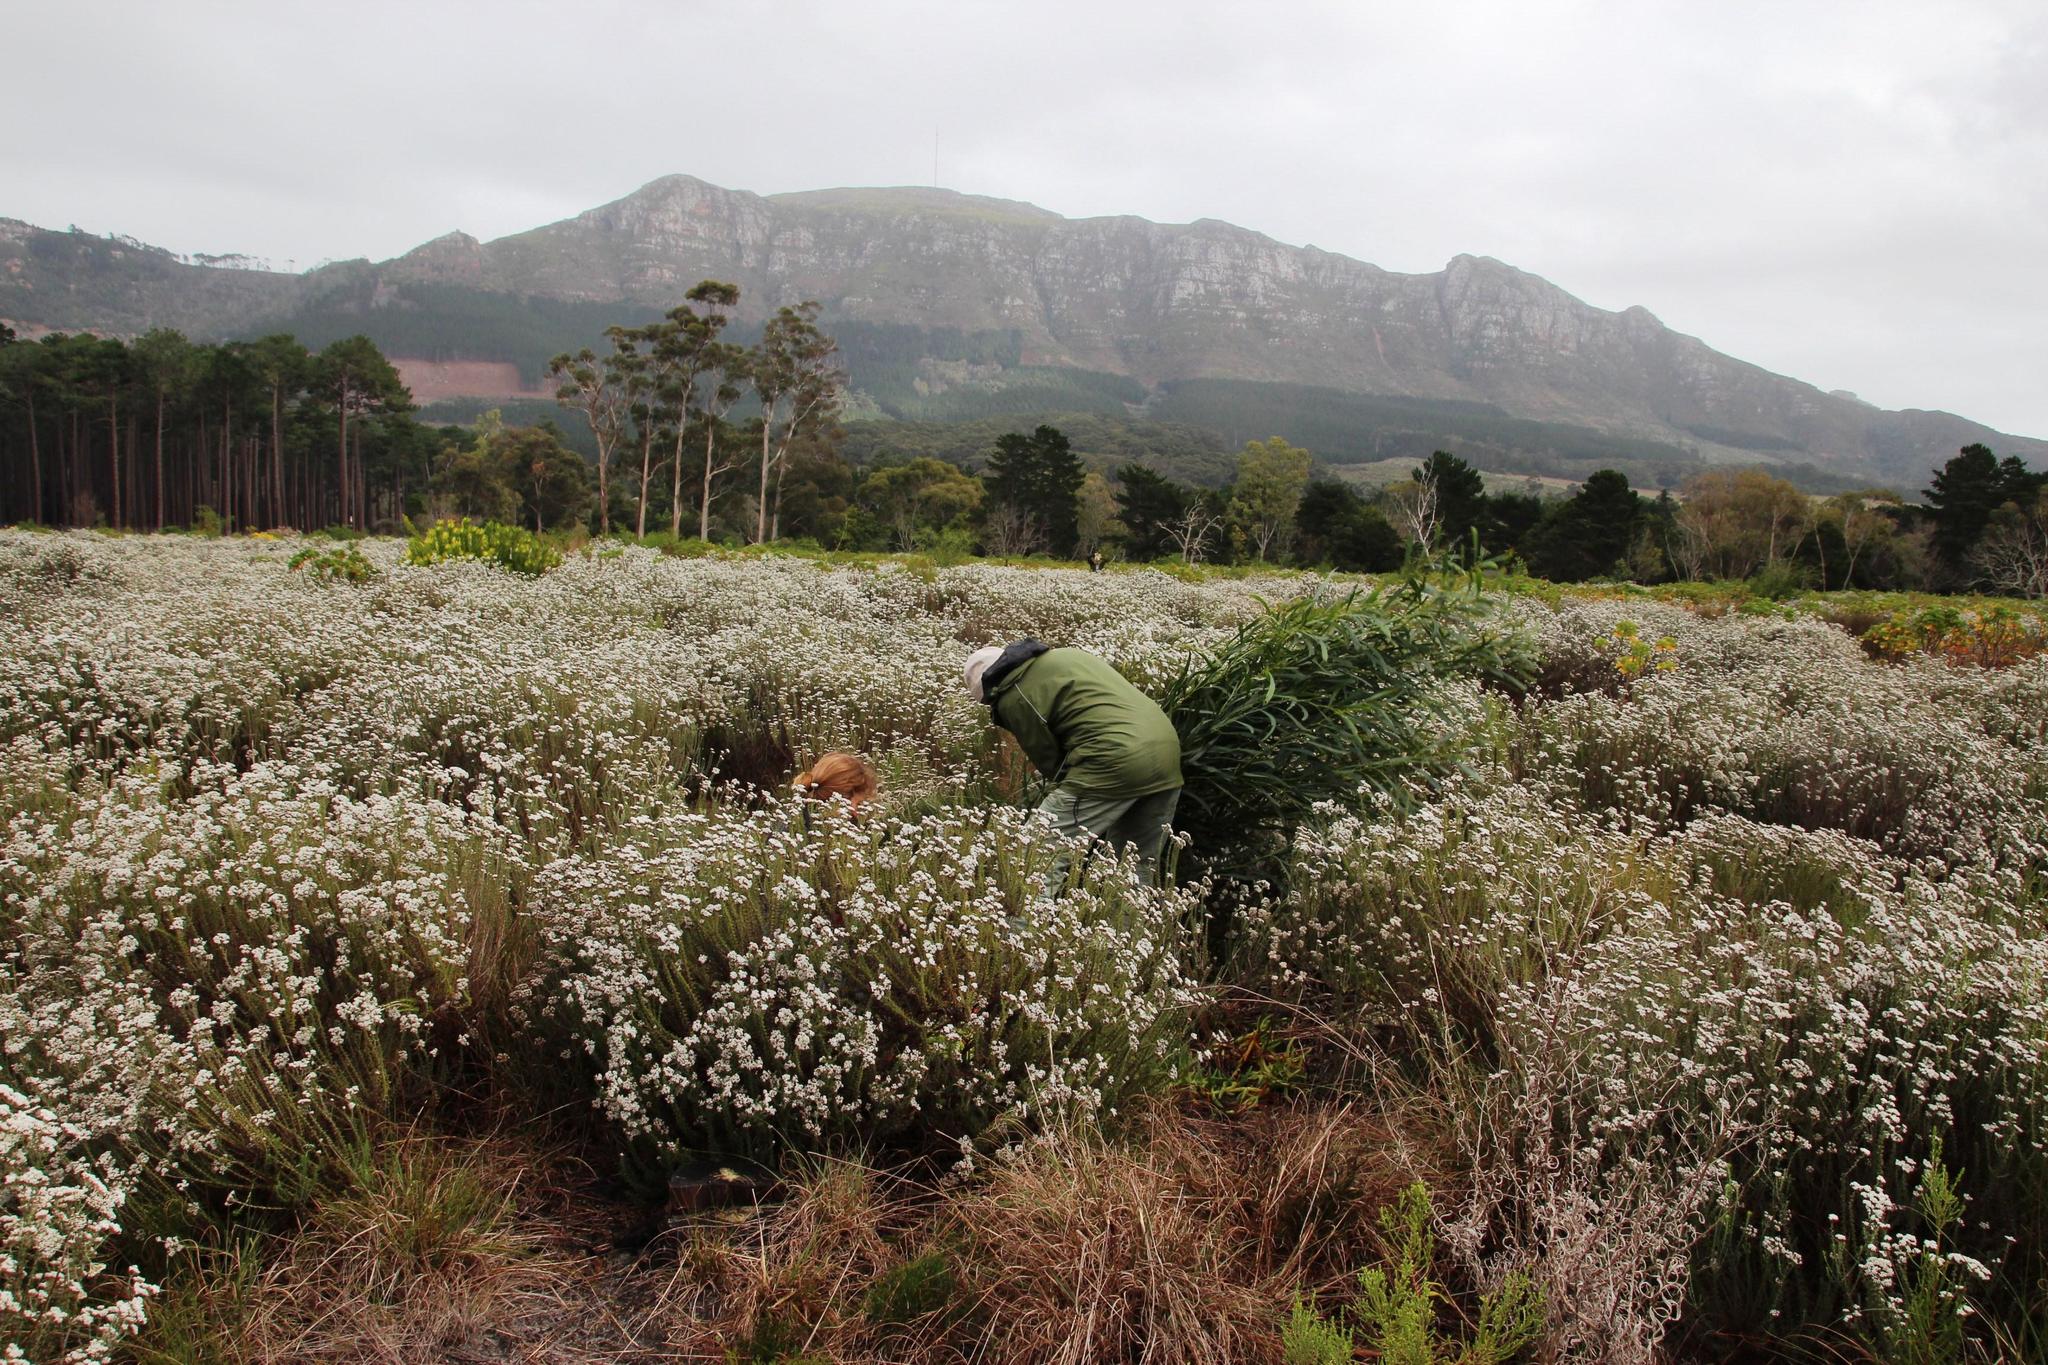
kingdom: Plantae
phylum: Tracheophyta
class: Magnoliopsida
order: Asterales
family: Asteraceae
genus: Metalasia
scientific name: Metalasia densa
